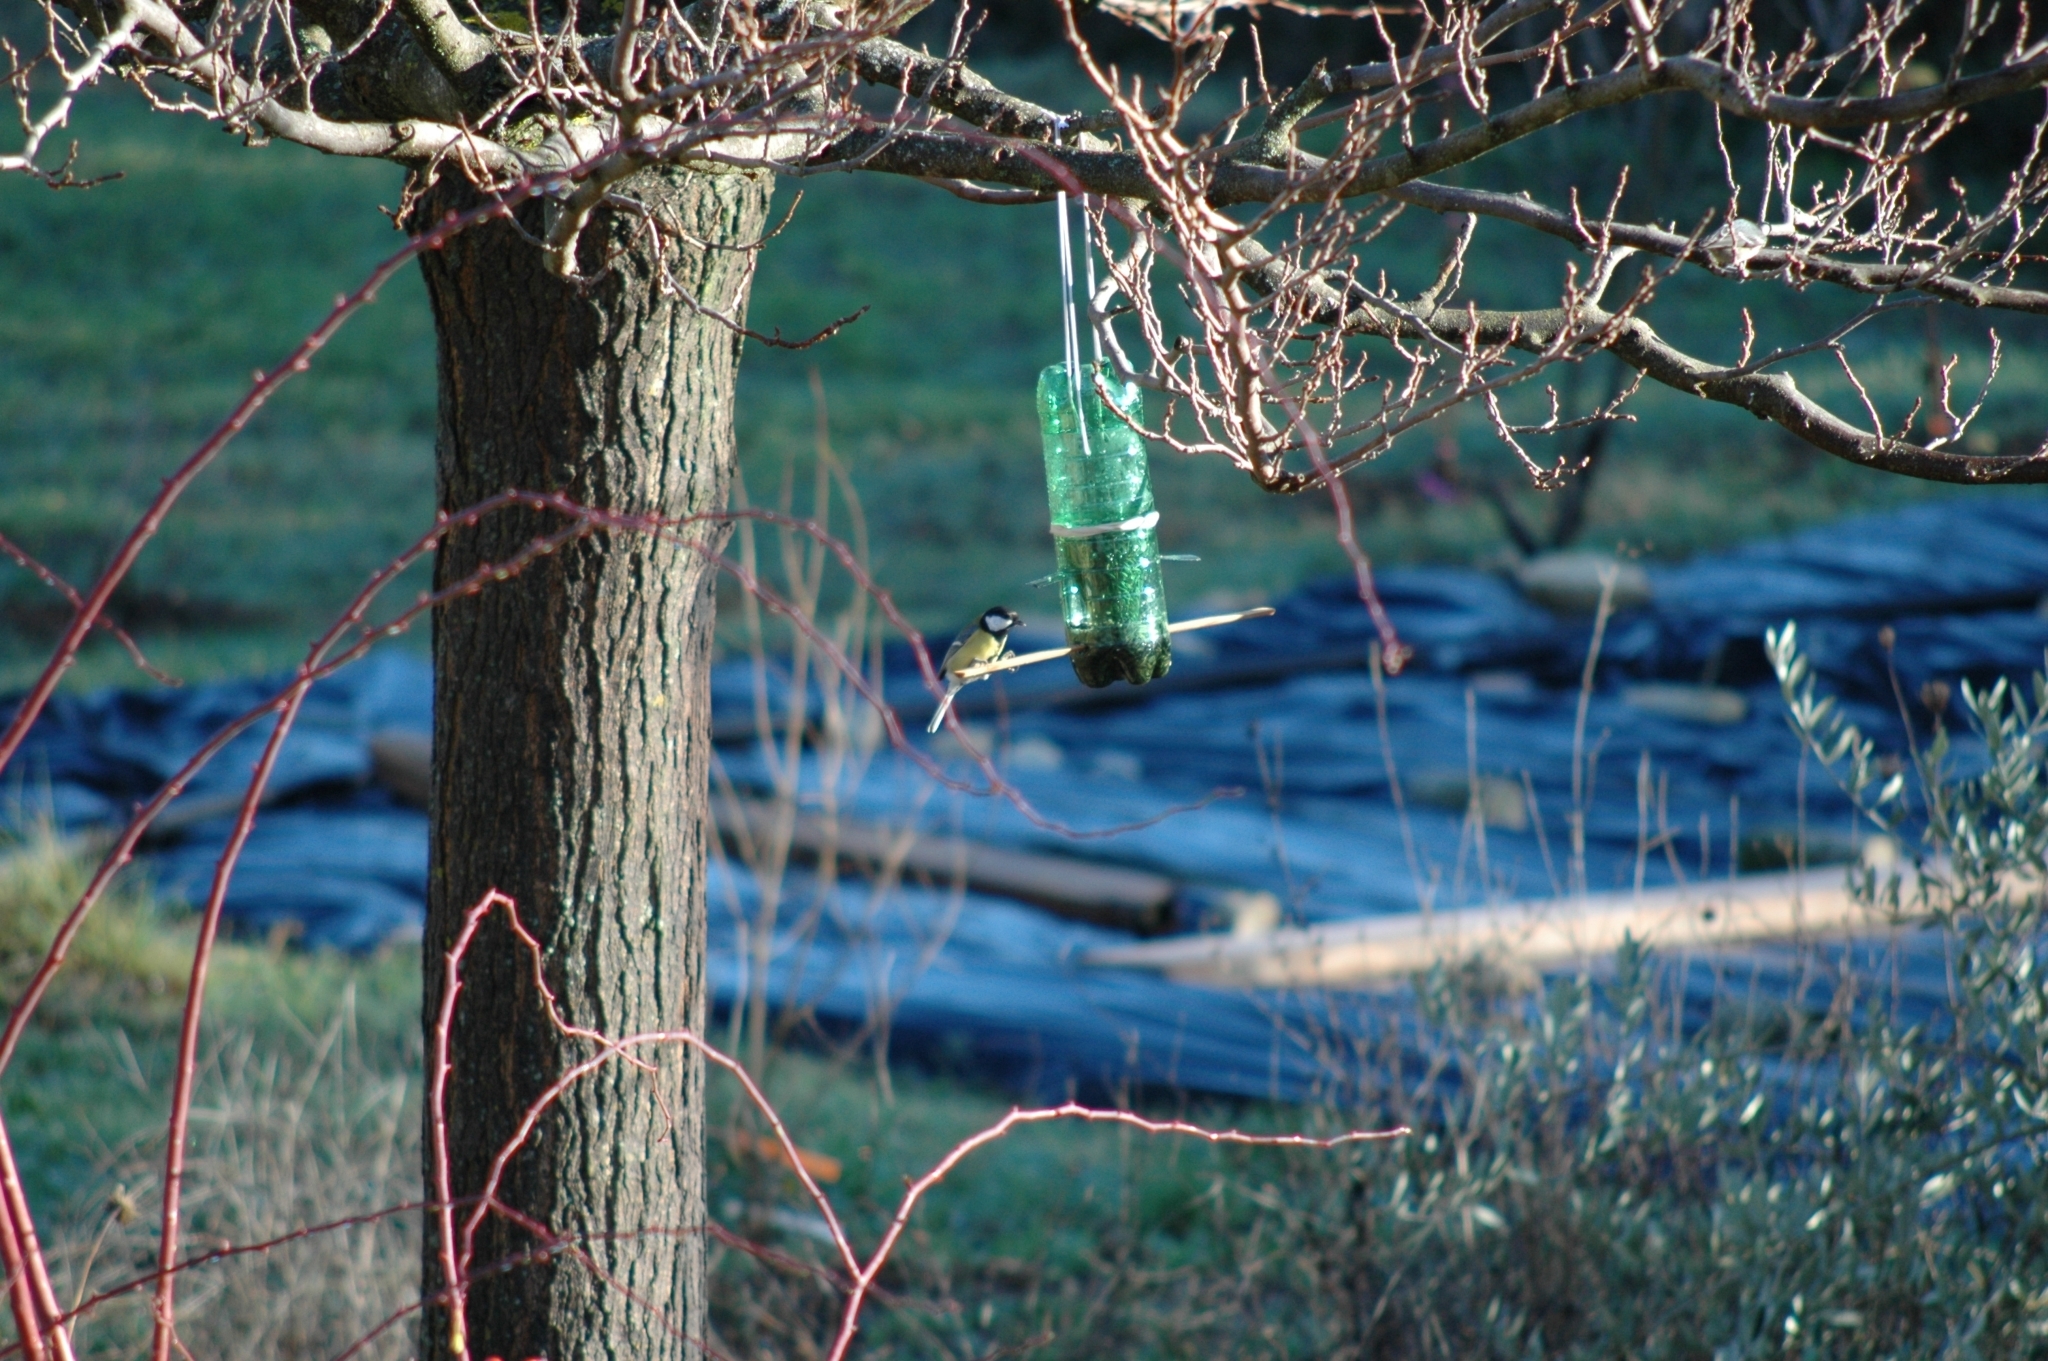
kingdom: Animalia
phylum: Chordata
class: Aves
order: Passeriformes
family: Paridae
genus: Parus
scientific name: Parus major
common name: Great tit
